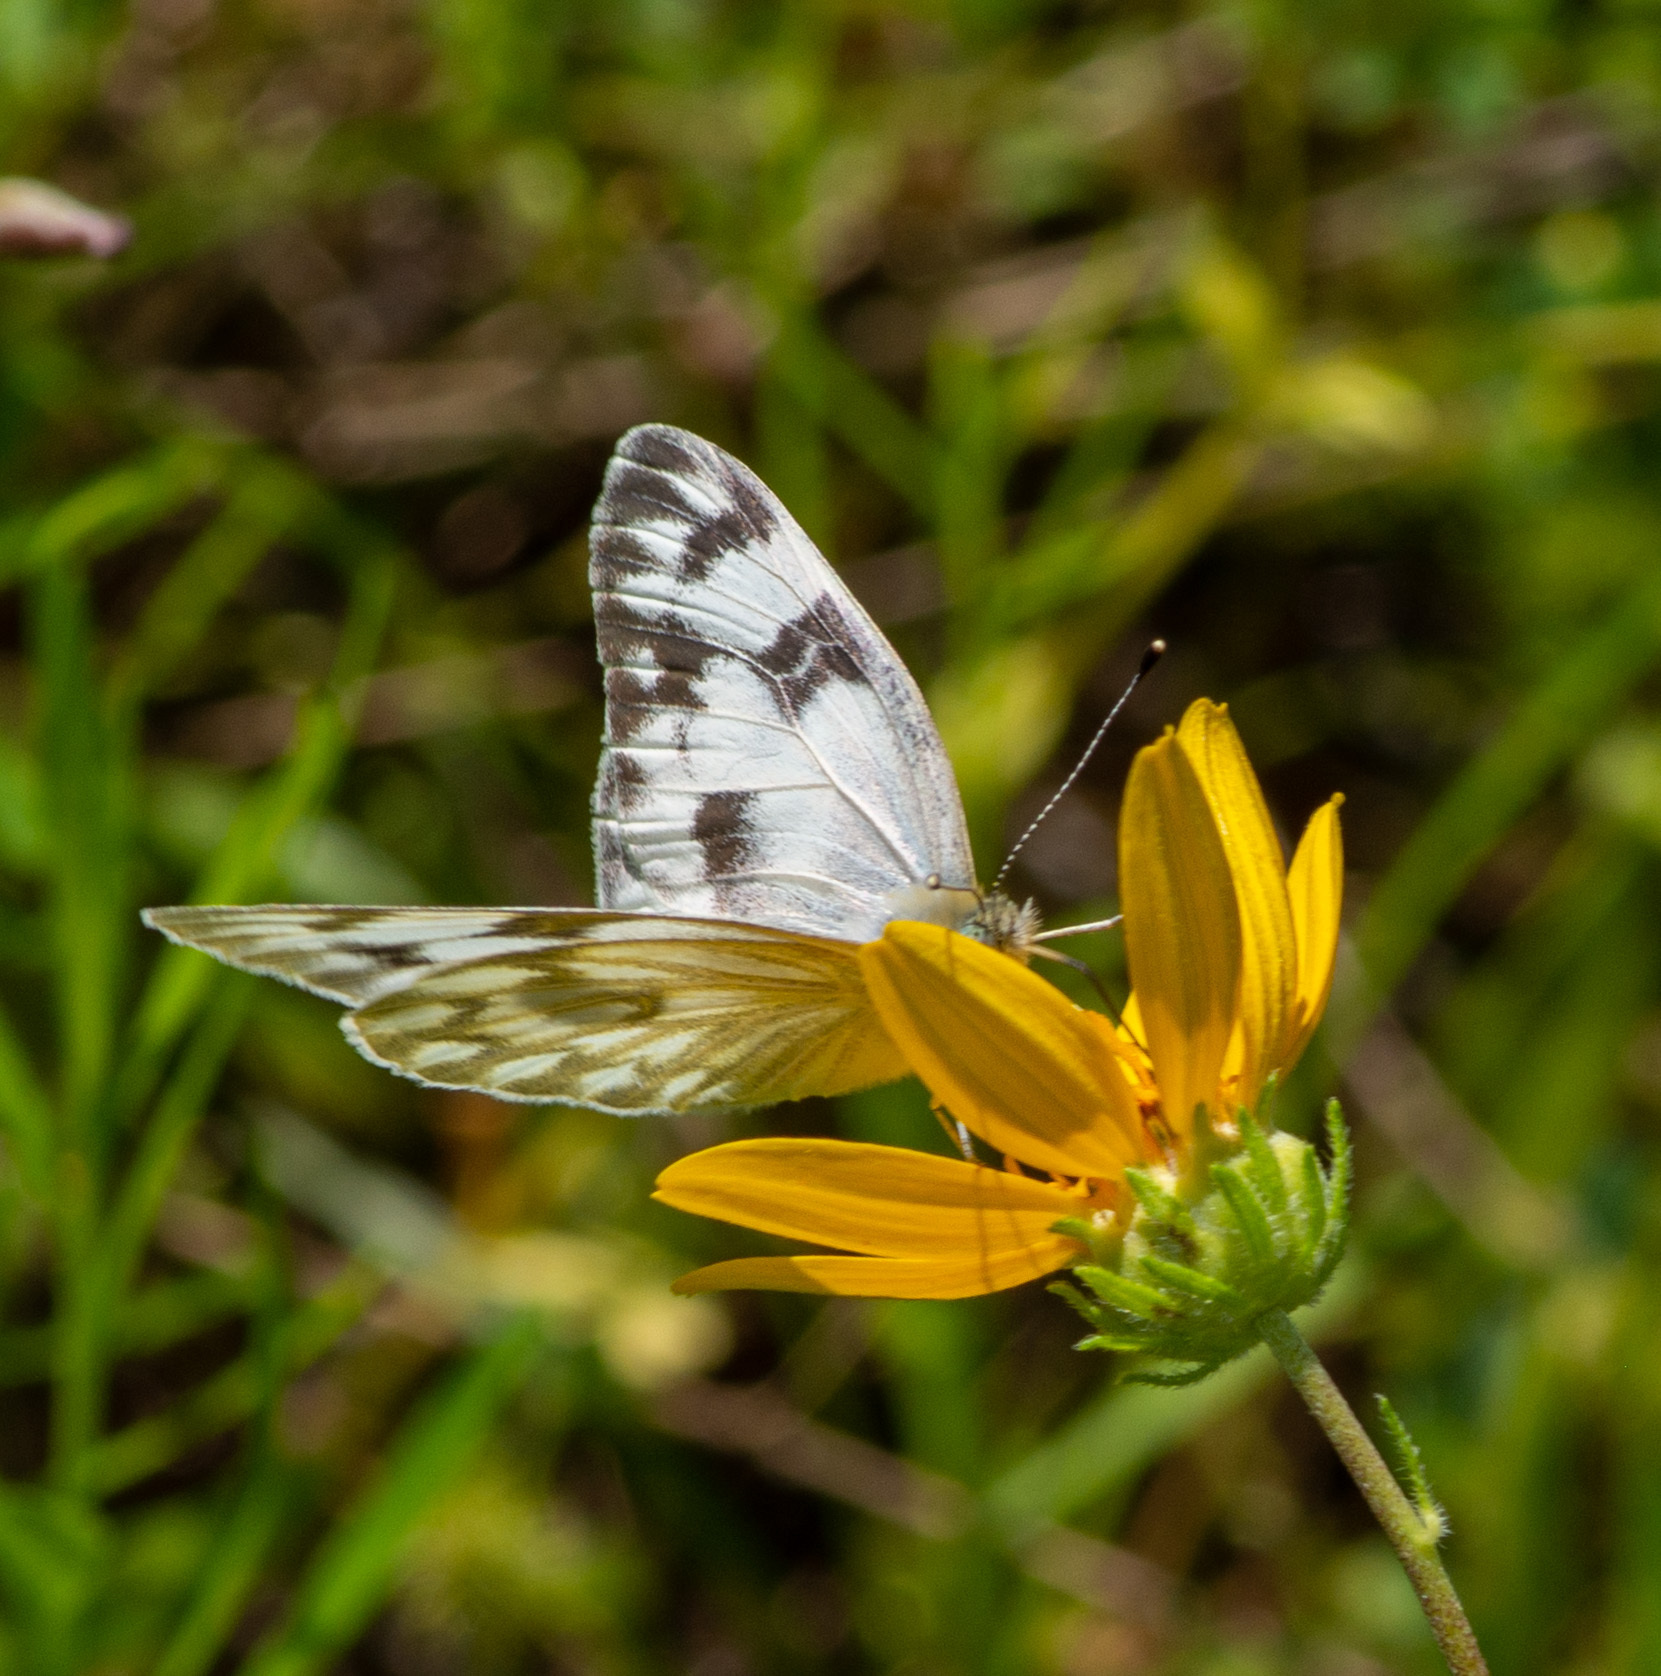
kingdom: Animalia
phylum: Arthropoda
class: Insecta
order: Lepidoptera
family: Pieridae
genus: Pontia
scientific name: Pontia protodice
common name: Checkered white
